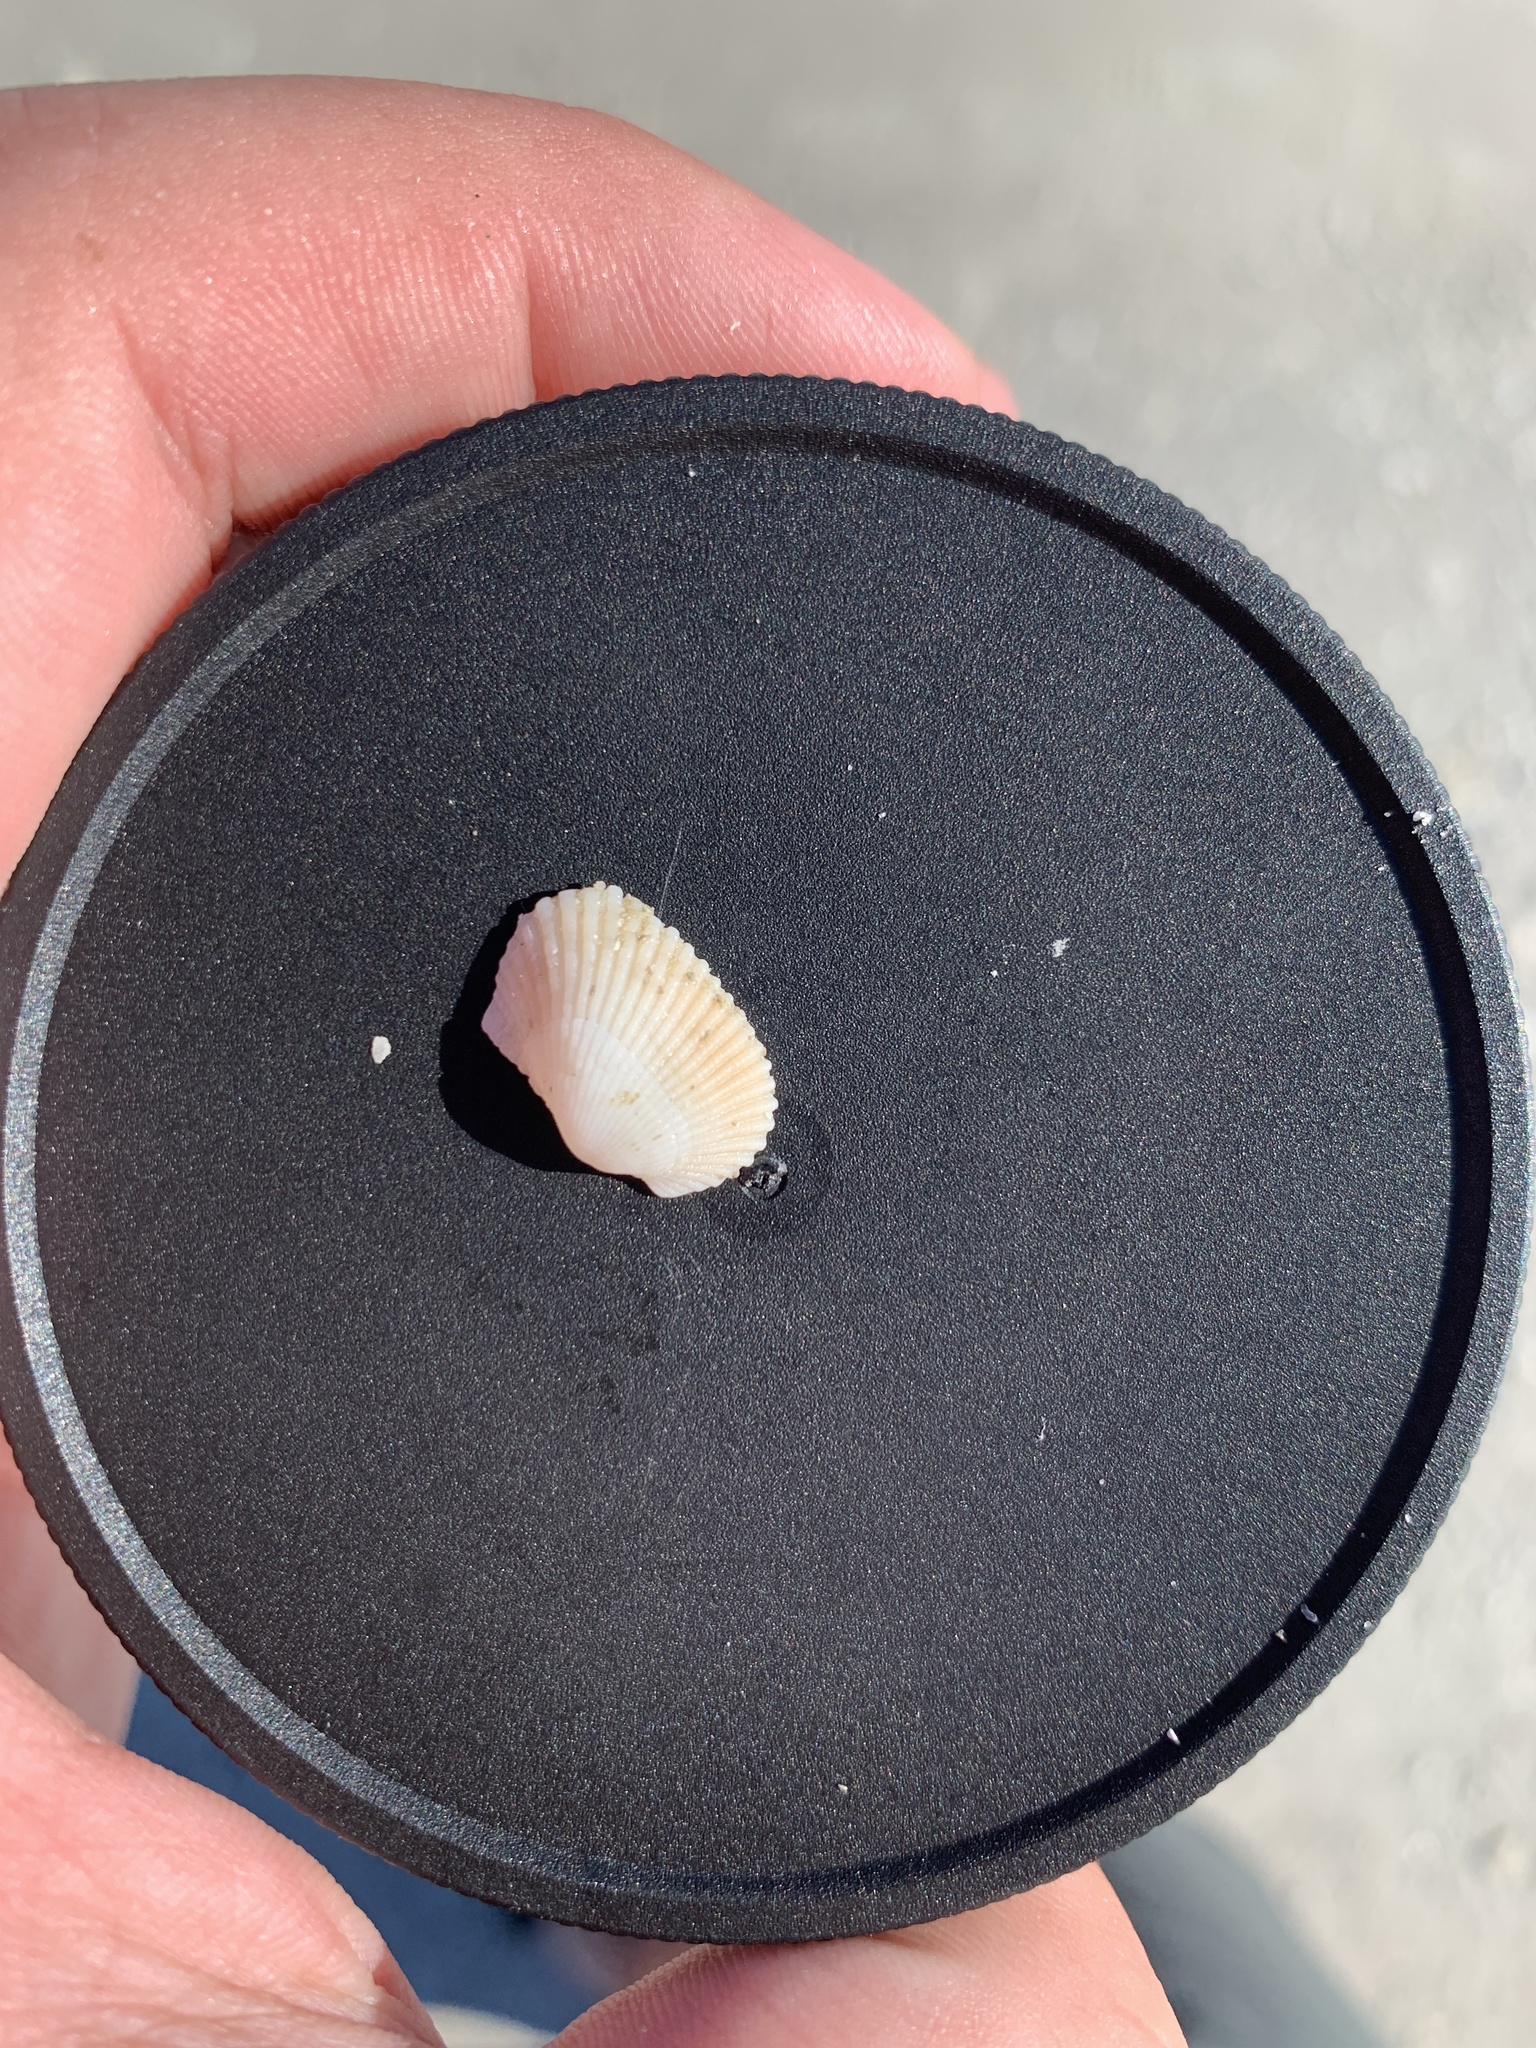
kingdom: Animalia
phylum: Mollusca
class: Bivalvia
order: Arcida
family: Arcidae
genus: Anadara
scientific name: Anadara transversa
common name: Transverse ark
